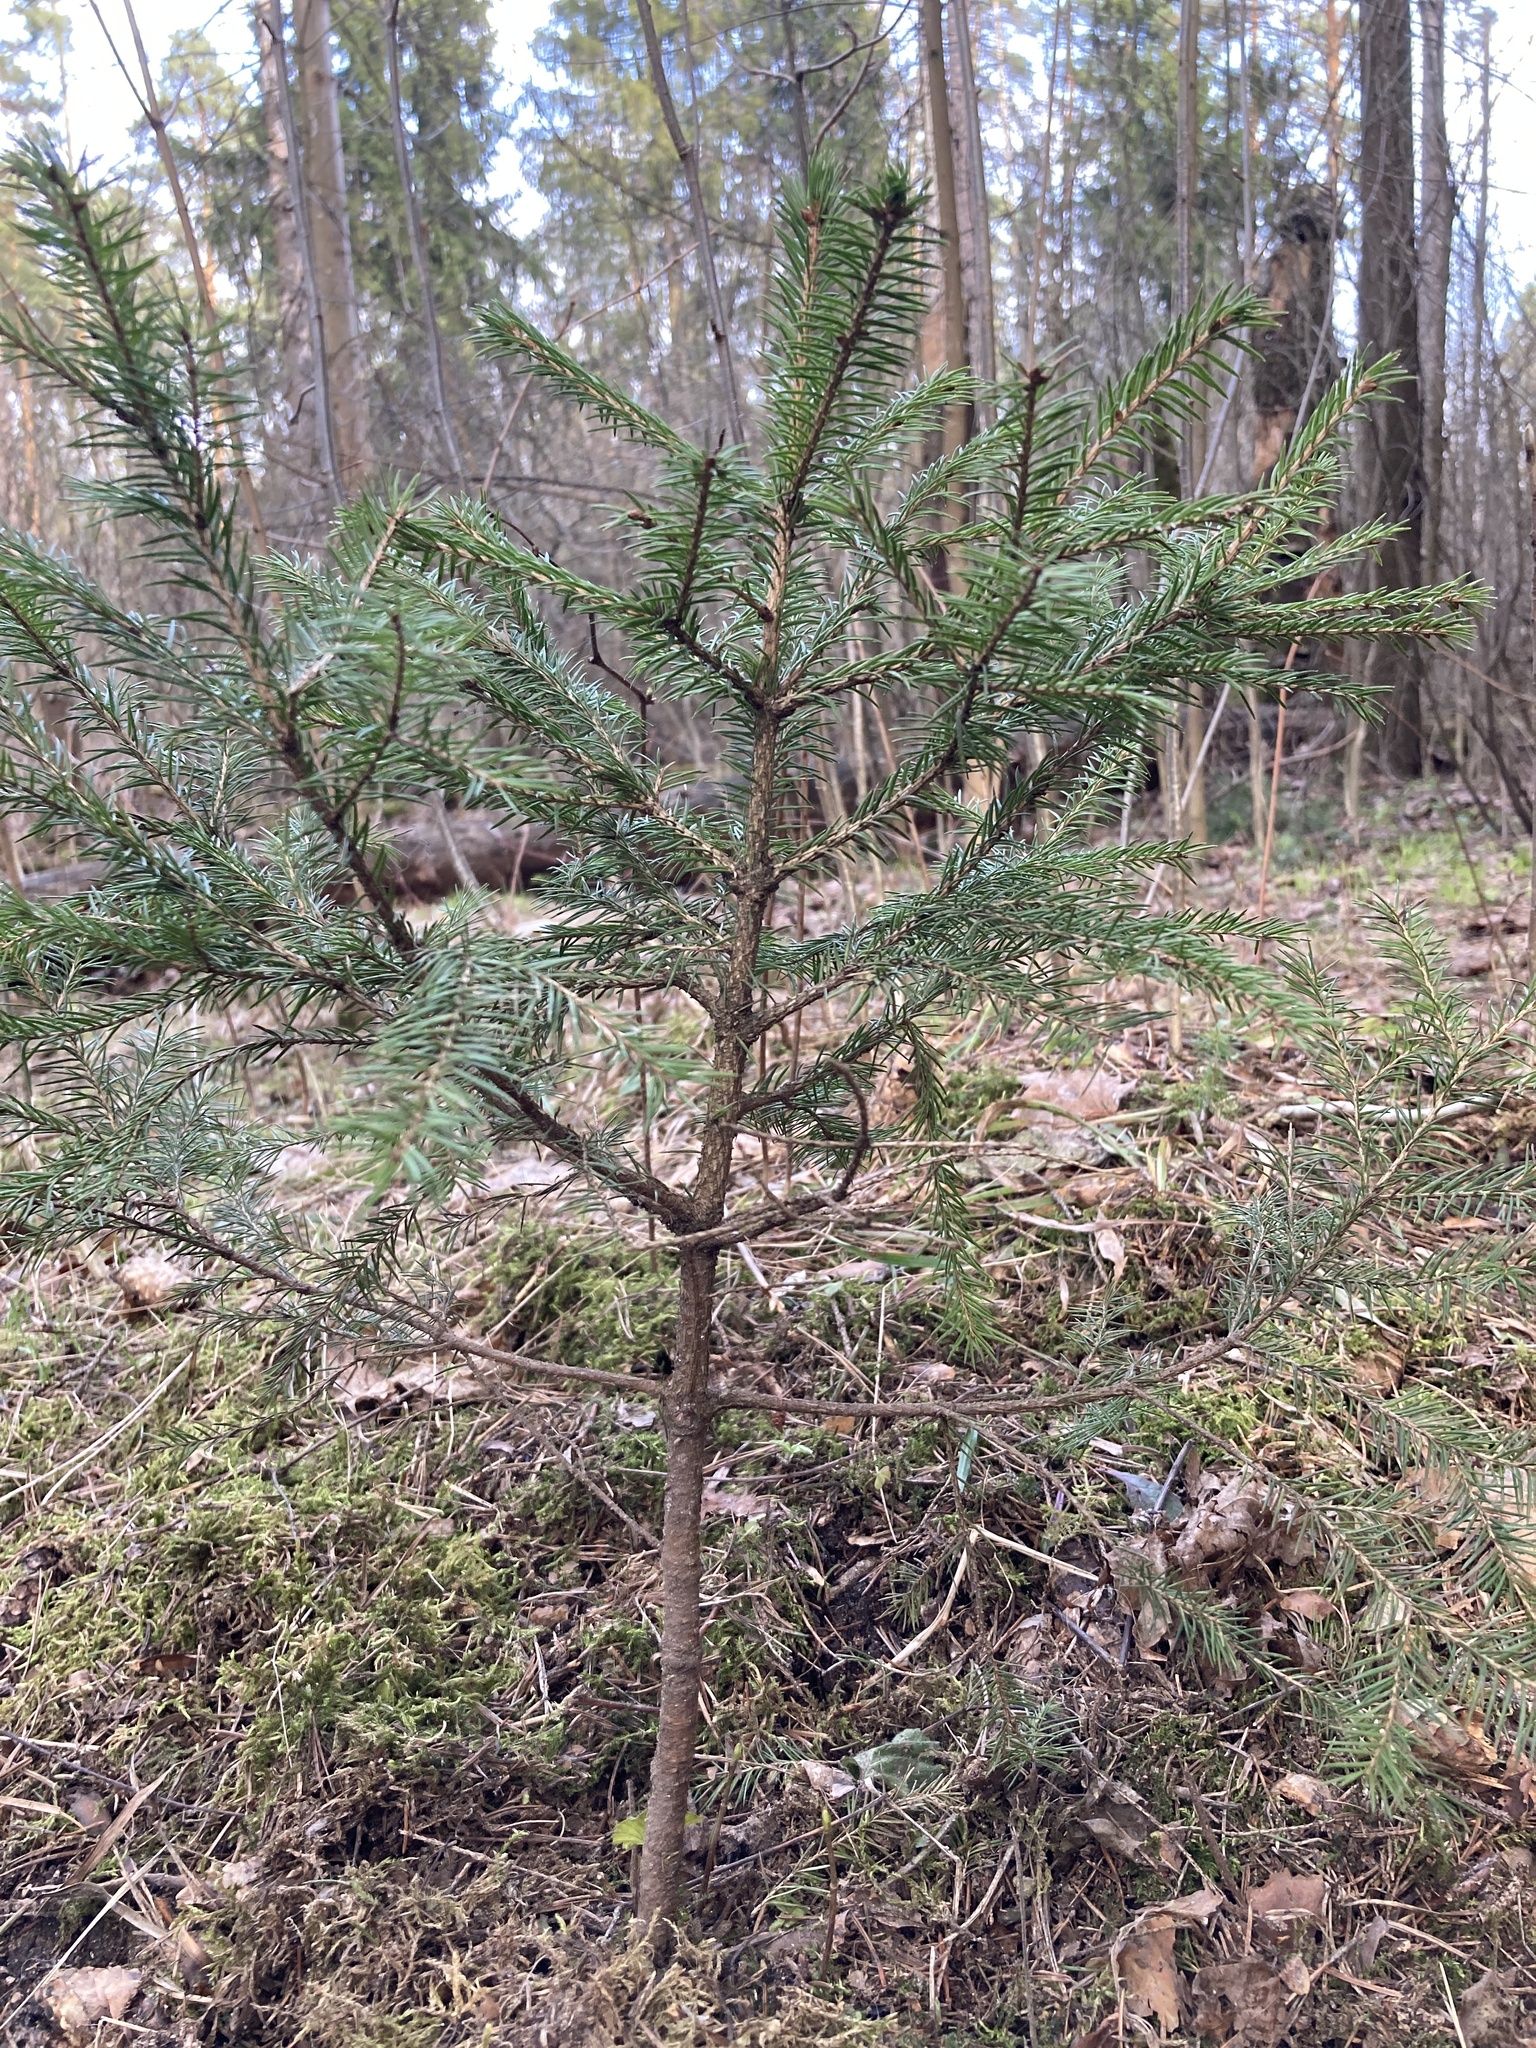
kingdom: Plantae
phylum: Tracheophyta
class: Pinopsida
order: Pinales
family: Pinaceae
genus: Picea
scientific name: Picea abies
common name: Norway spruce
